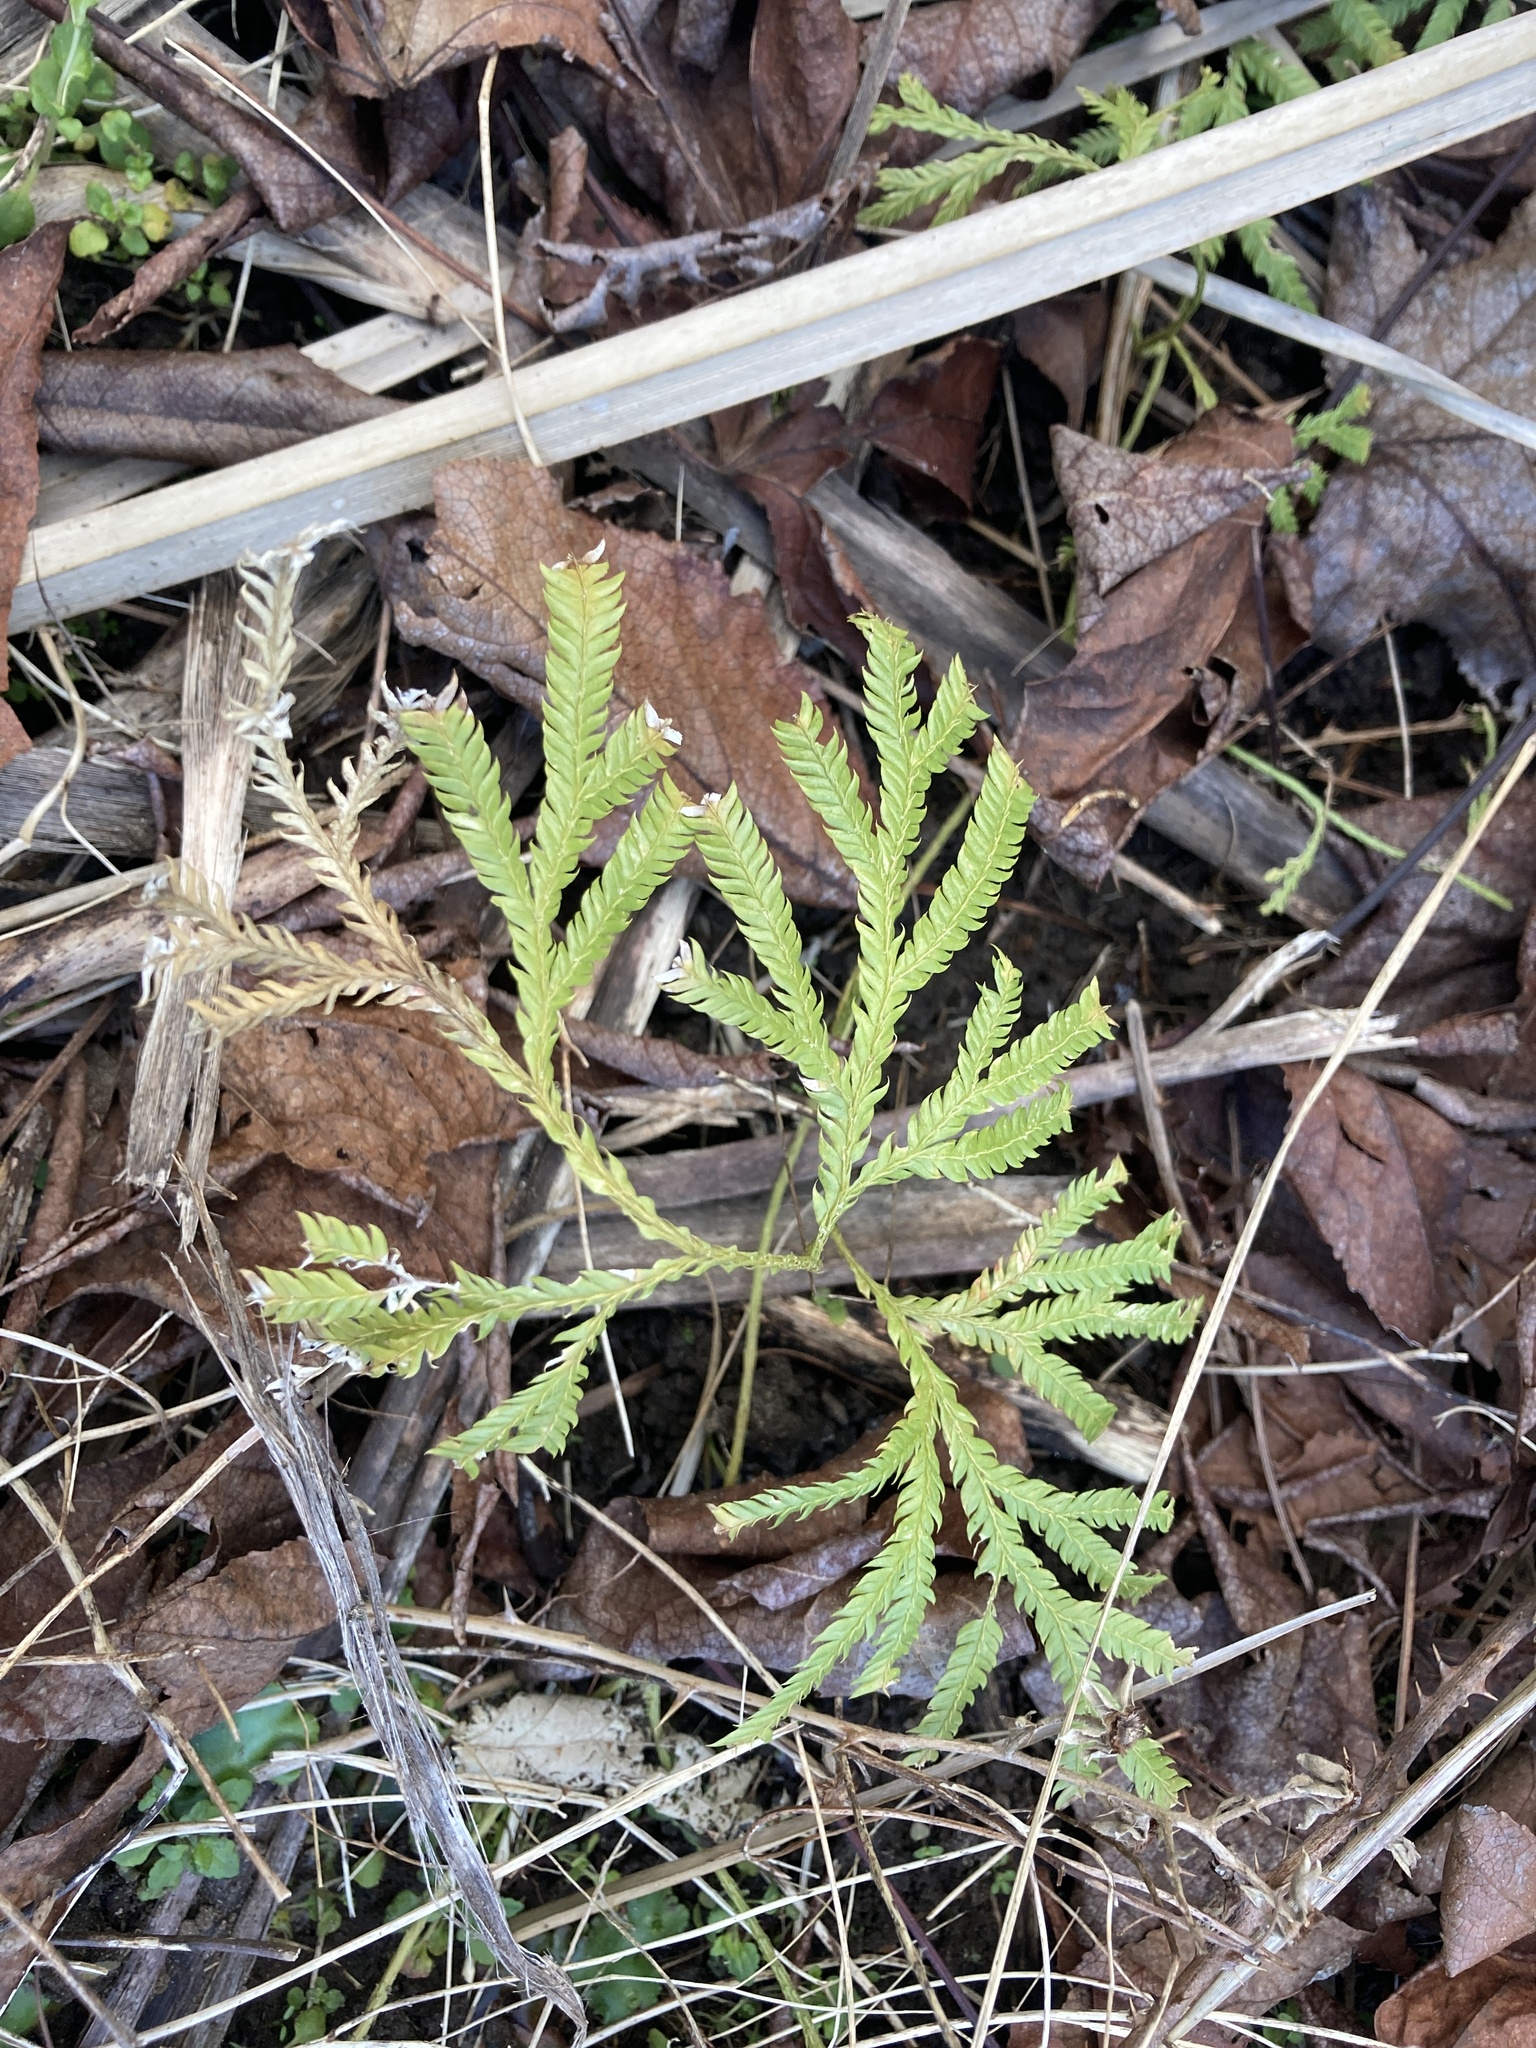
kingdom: Plantae
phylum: Tracheophyta
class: Lycopodiopsida
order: Lycopodiales
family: Lycopodiaceae
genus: Lycopodium
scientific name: Lycopodium volubile
